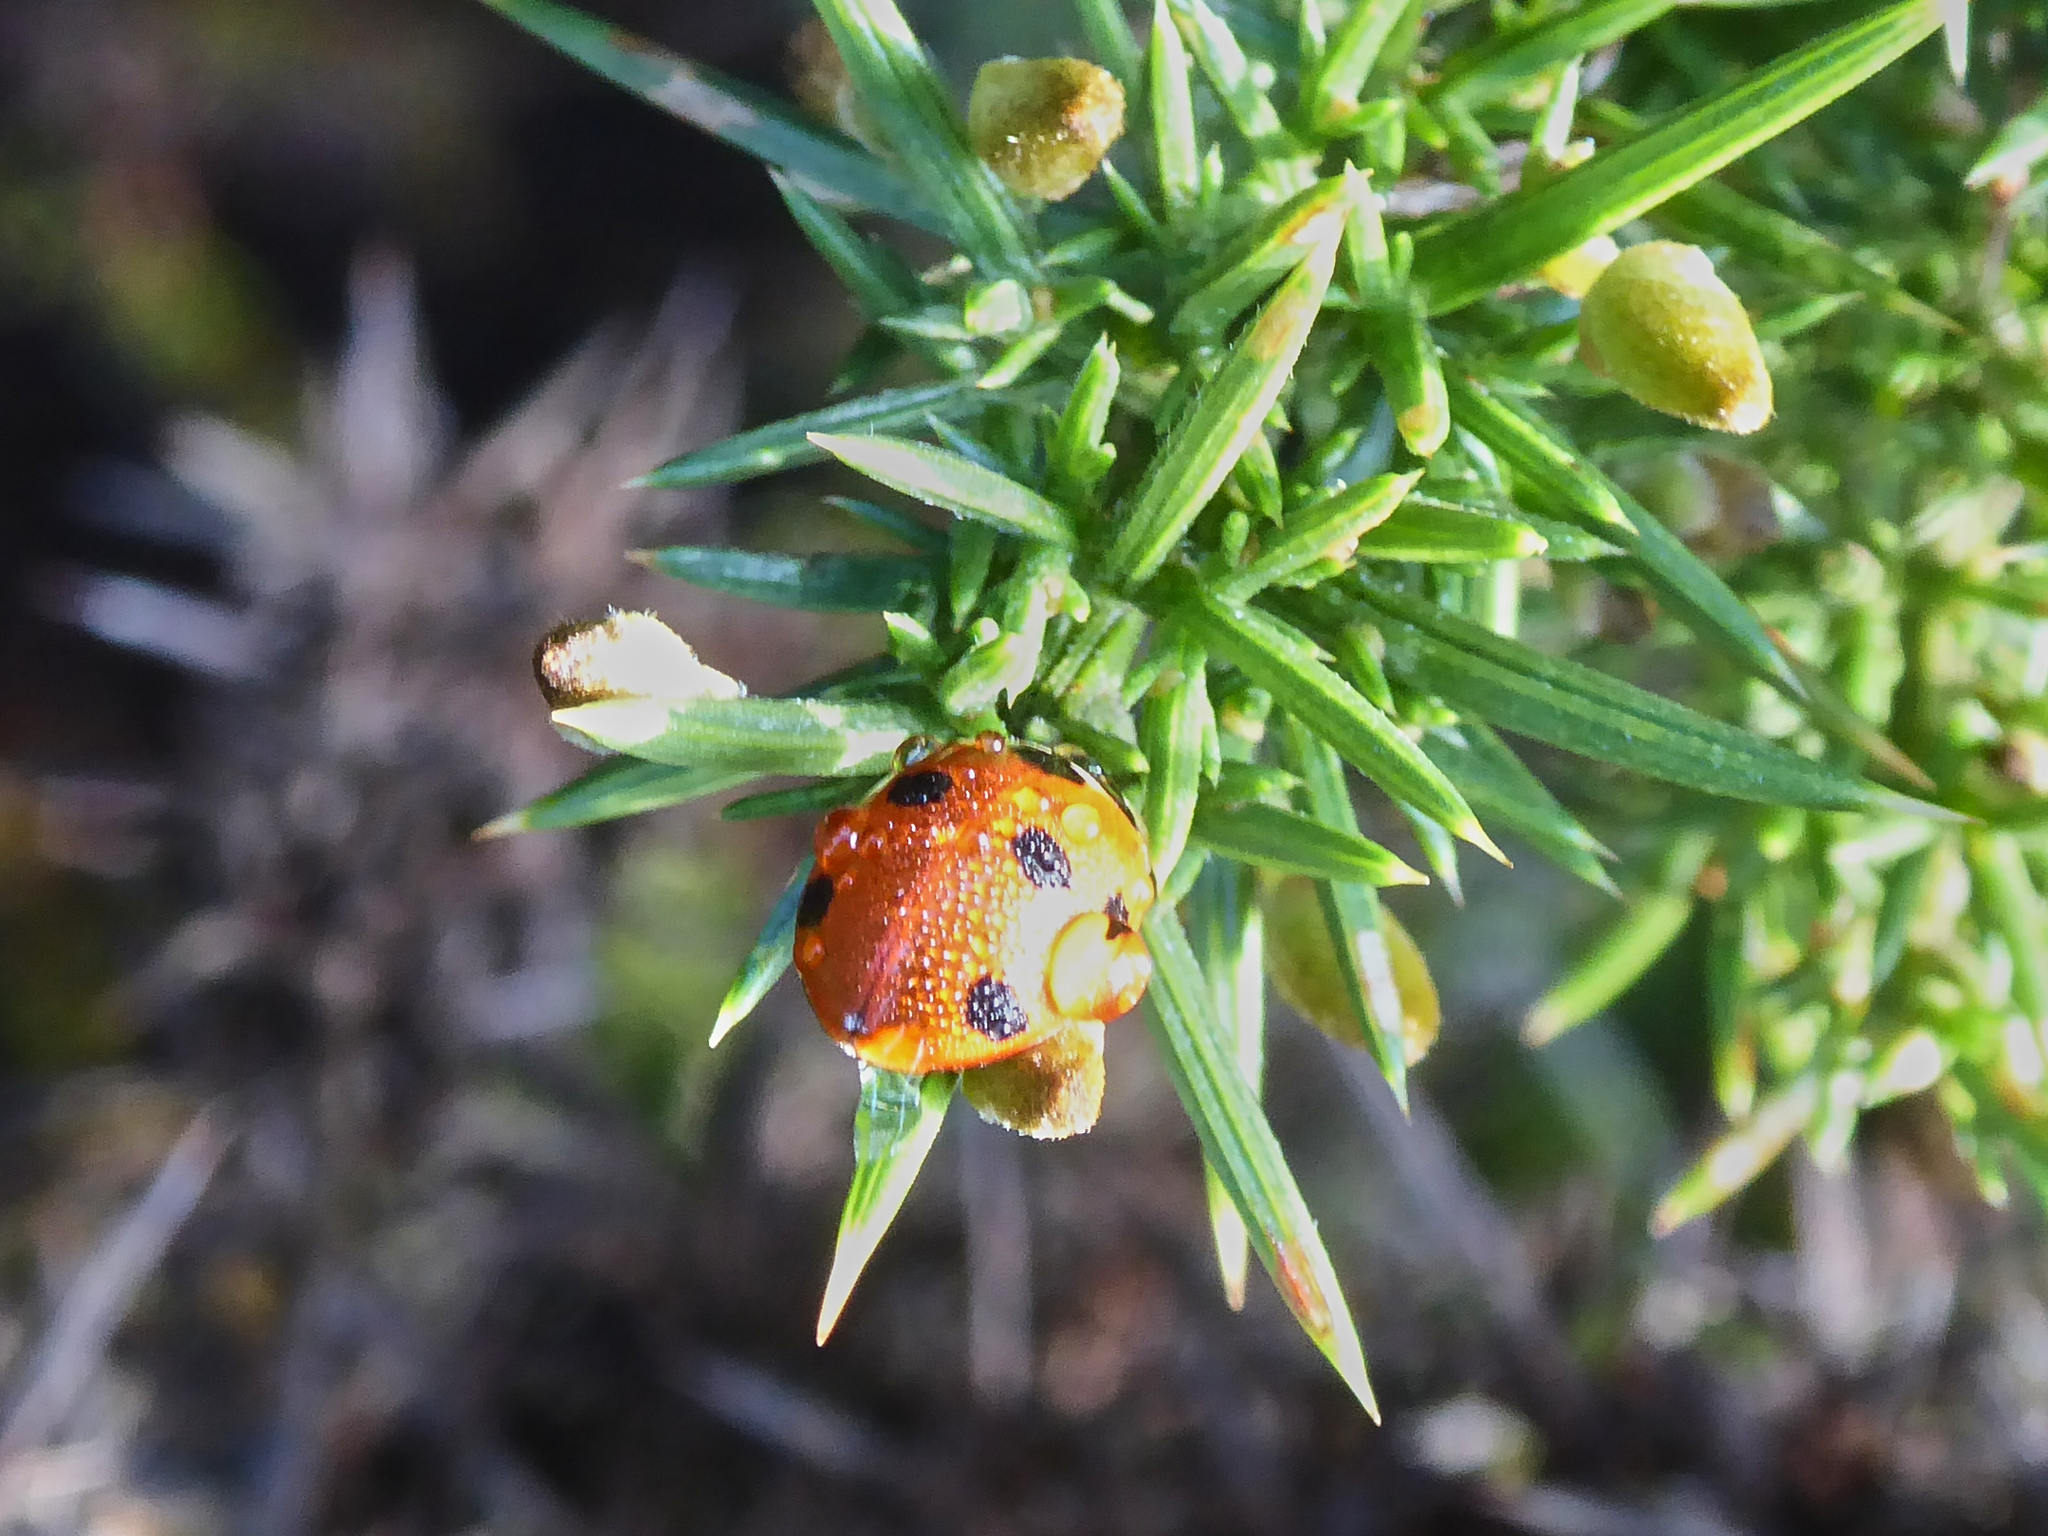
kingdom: Animalia
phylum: Arthropoda
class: Insecta
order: Coleoptera
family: Coccinellidae
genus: Coccinella
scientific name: Coccinella septempunctata
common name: Sevenspotted lady beetle
